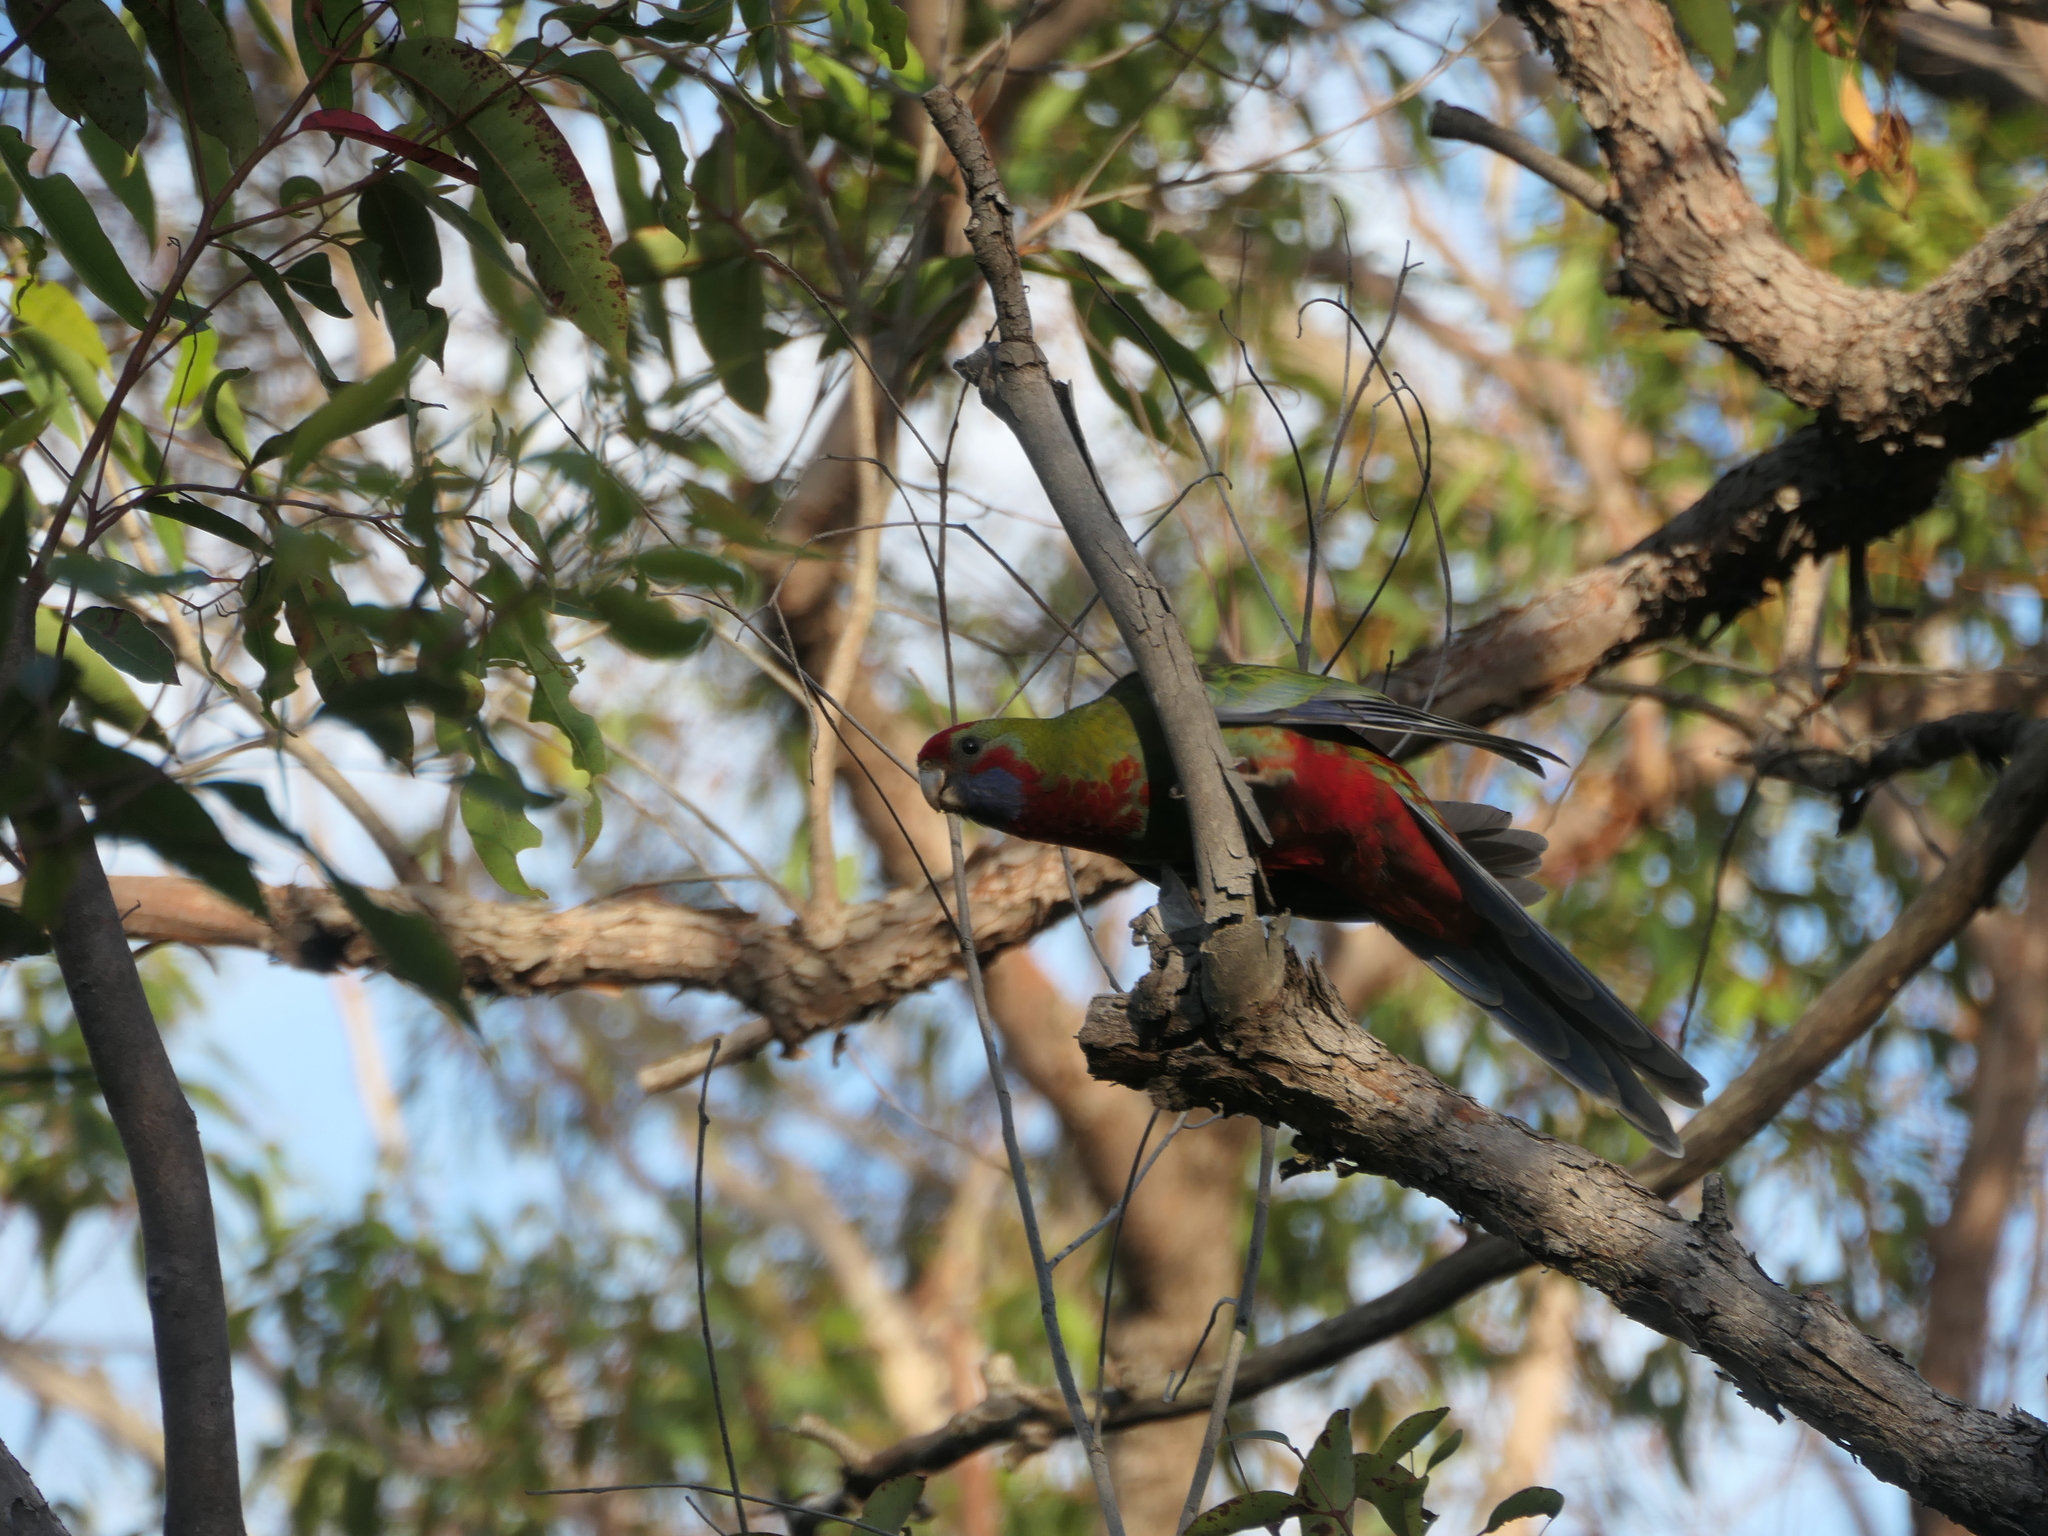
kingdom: Animalia
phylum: Chordata
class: Aves
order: Psittaciformes
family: Psittacidae
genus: Platycercus
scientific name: Platycercus elegans
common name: Crimson rosella
